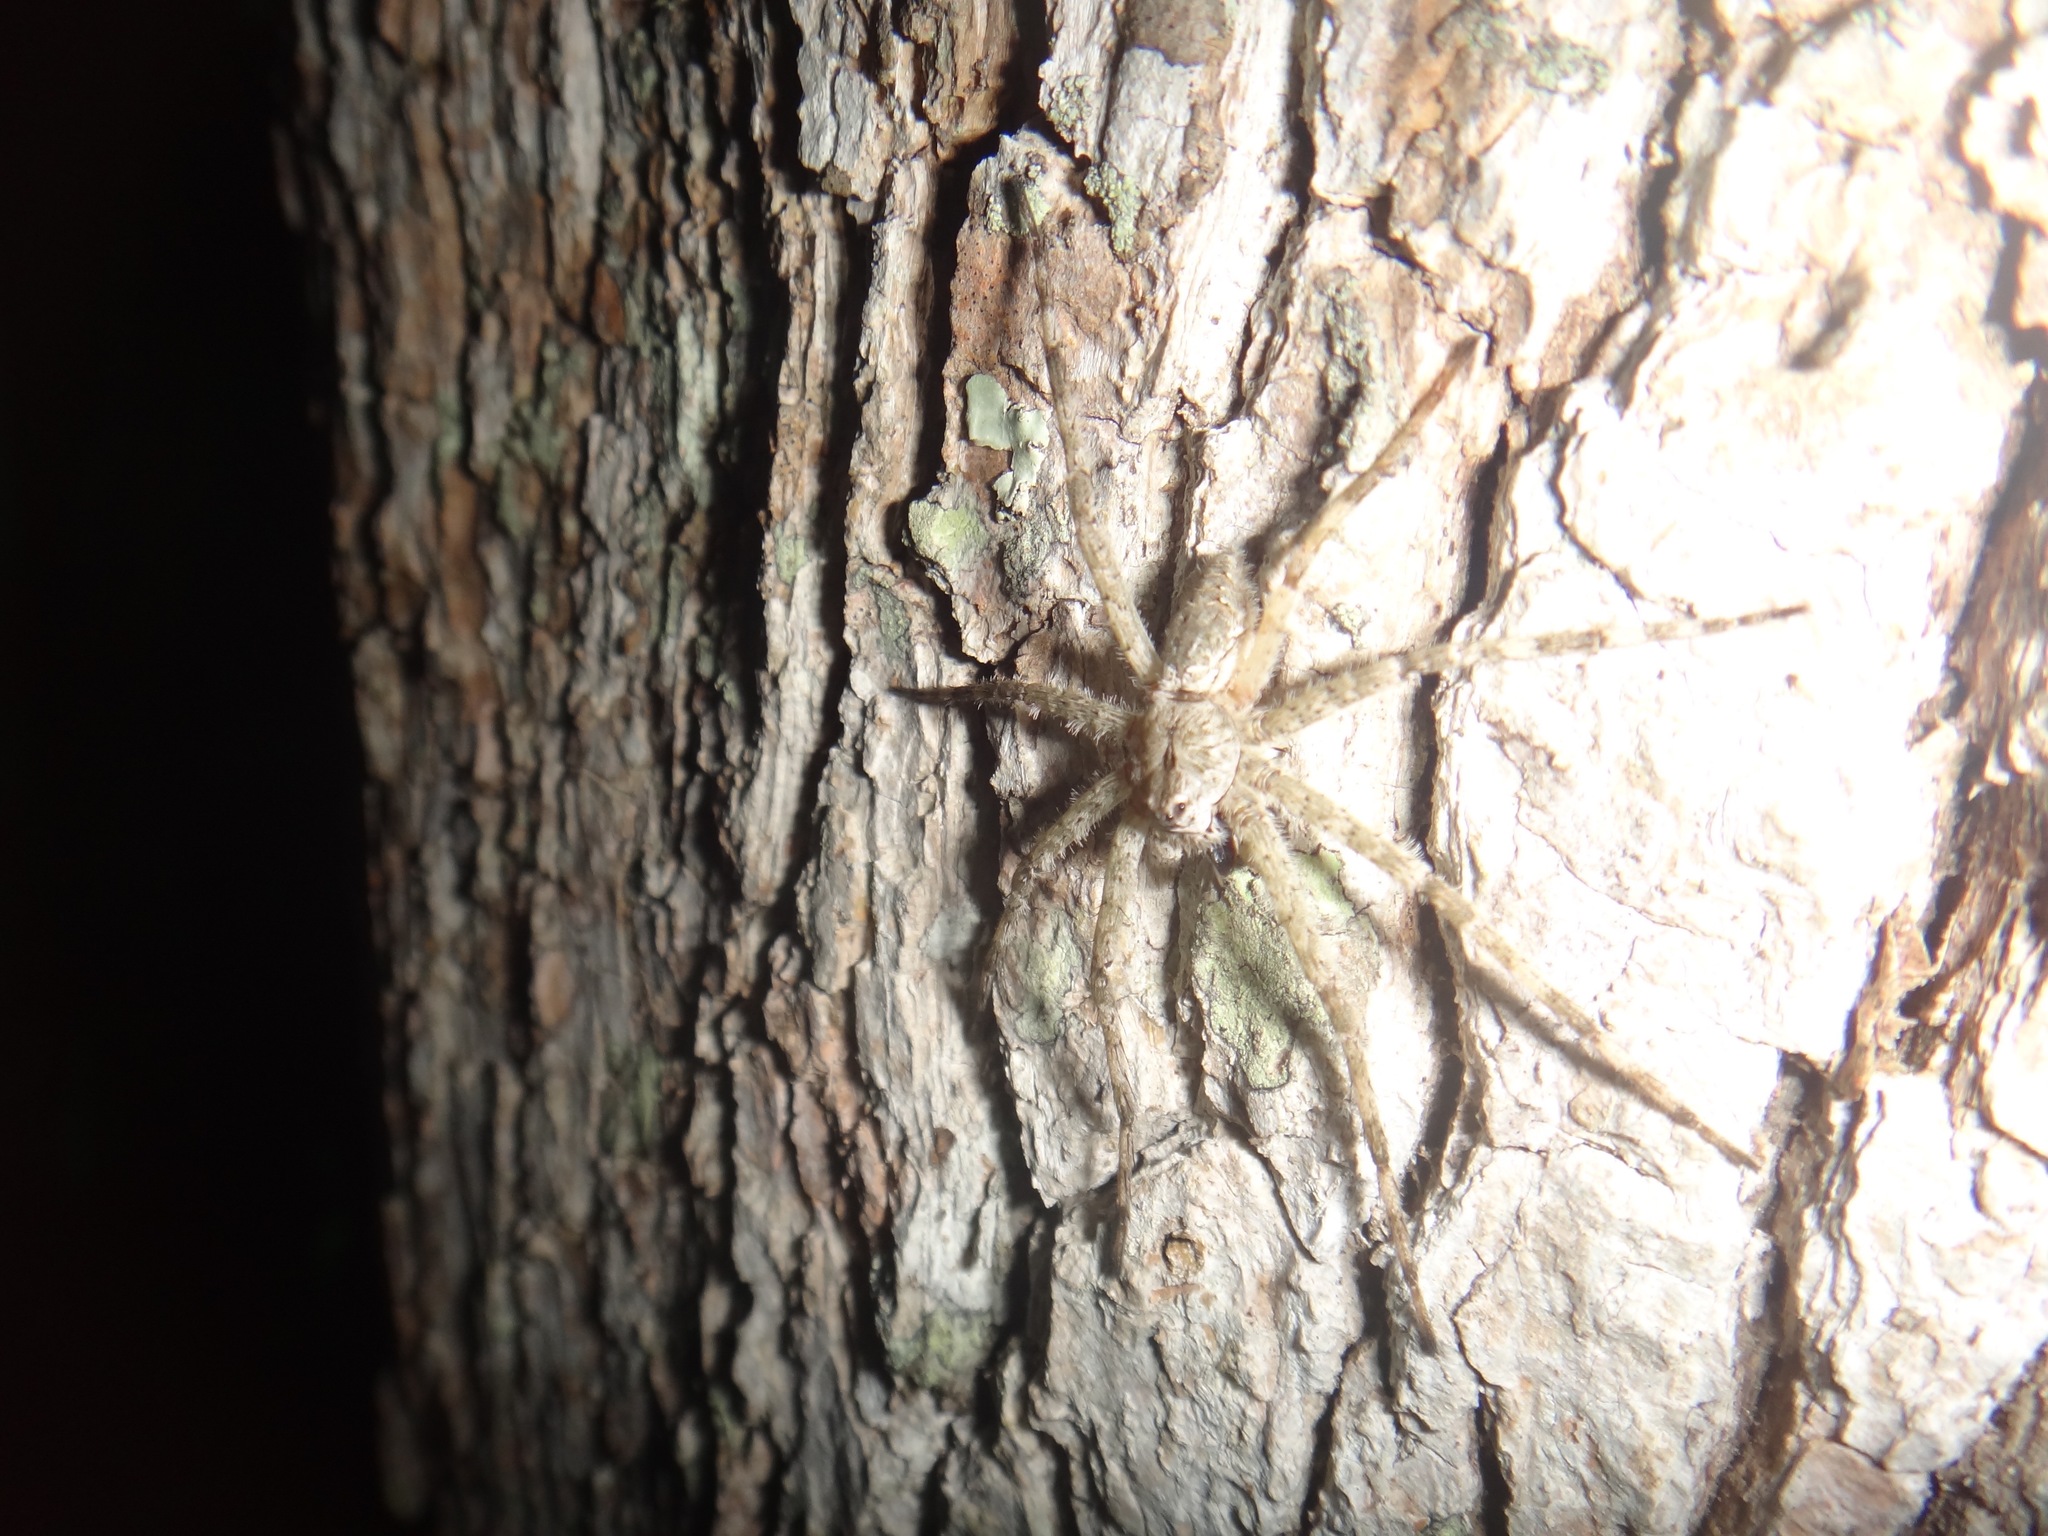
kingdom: Animalia
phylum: Arthropoda
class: Arachnida
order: Araneae
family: Pisauridae
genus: Dolomedes
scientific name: Dolomedes albineus
